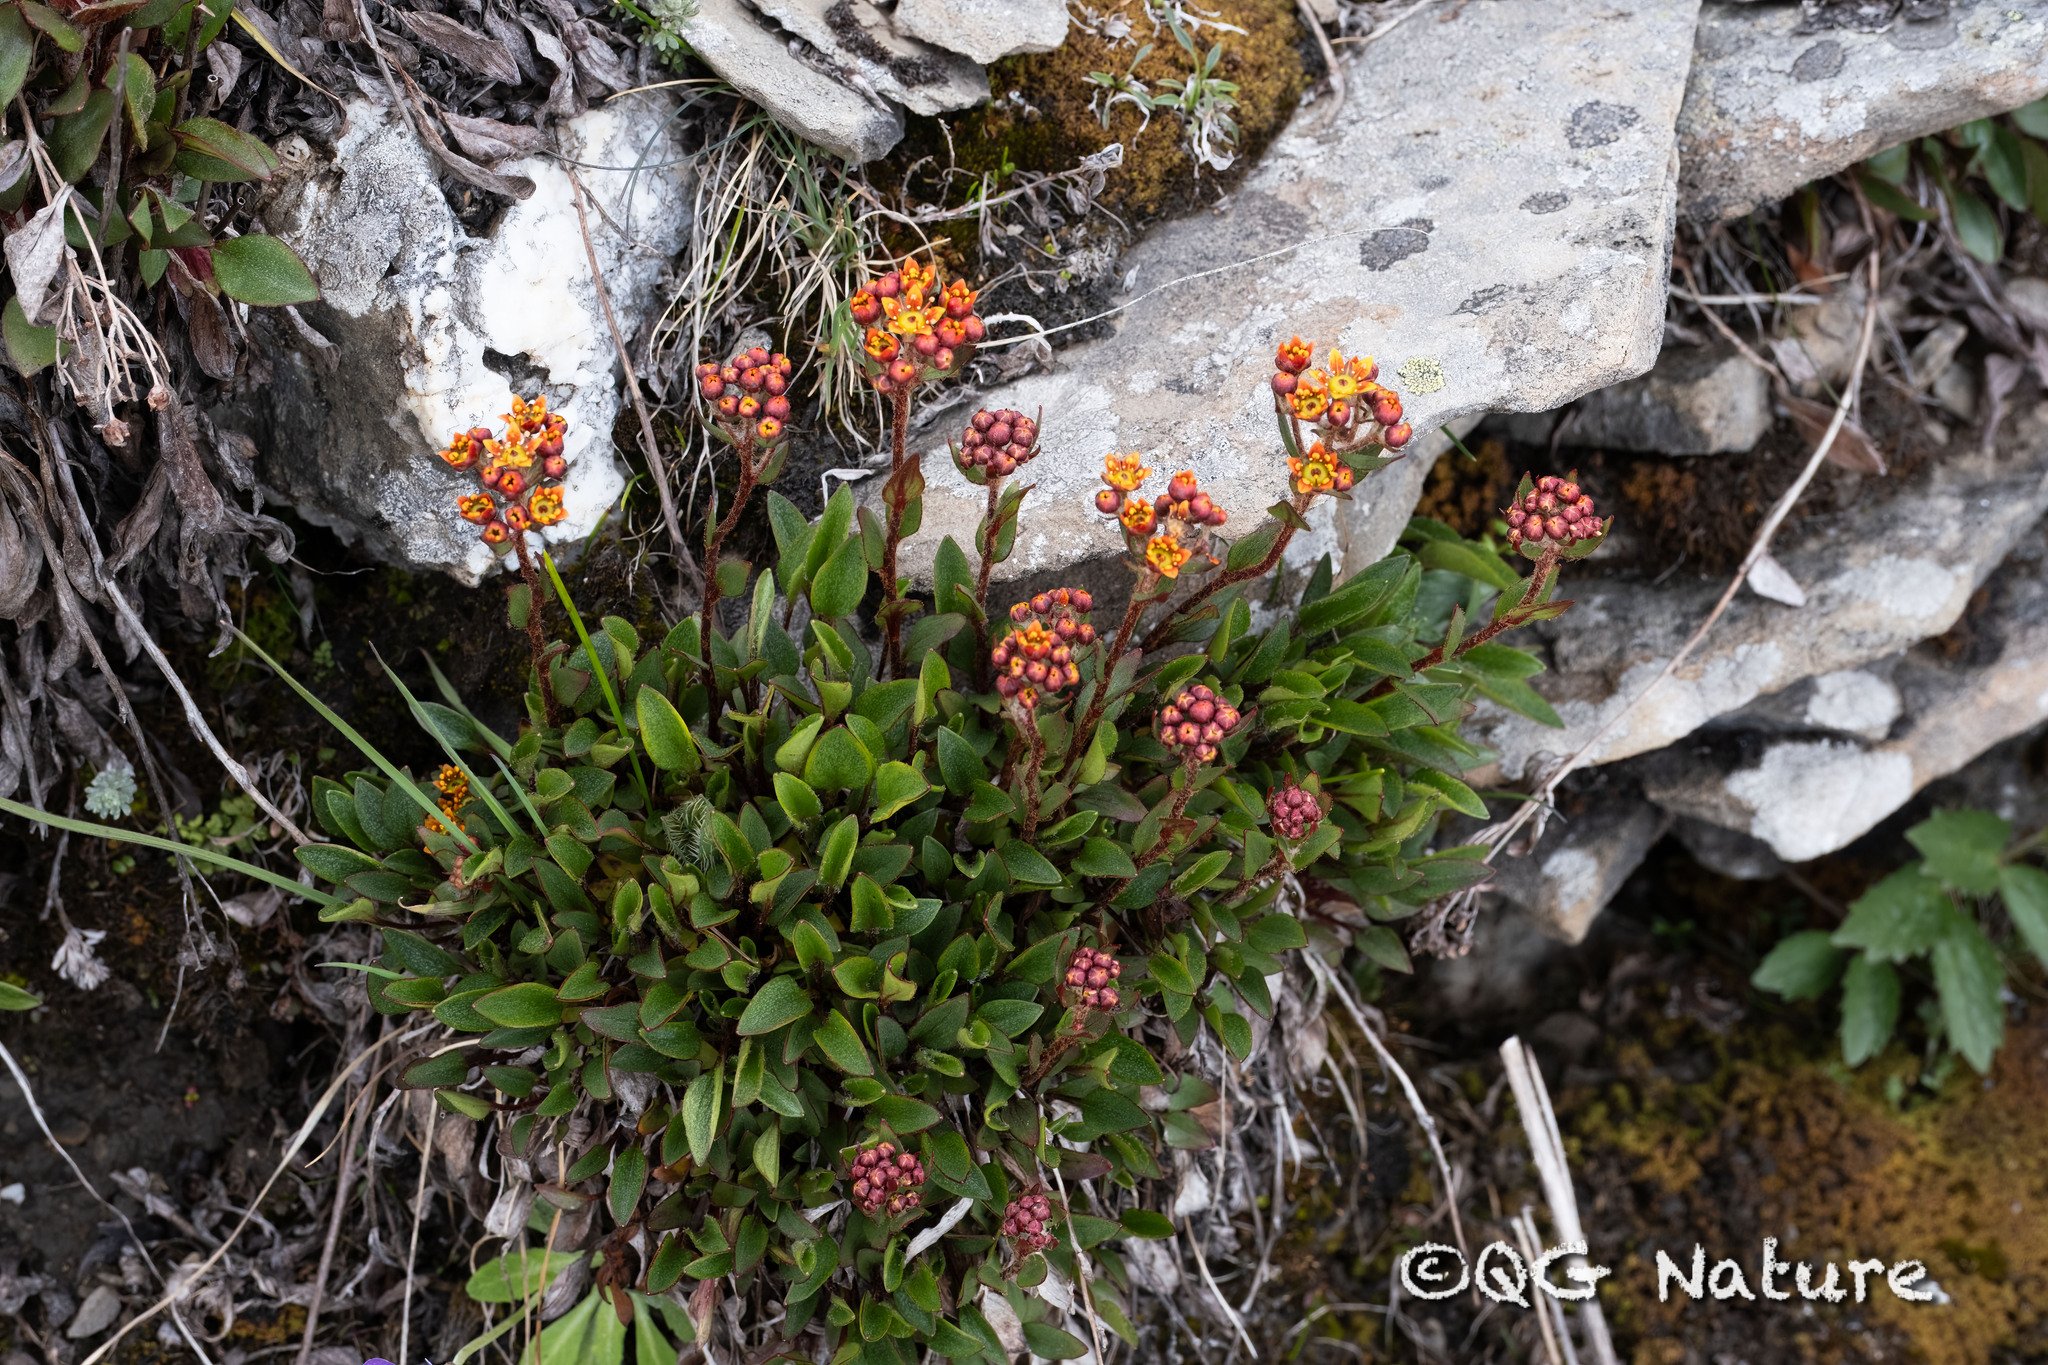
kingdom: Plantae
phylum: Tracheophyta
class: Magnoliopsida
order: Saxifragales
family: Saxifragaceae
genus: Saxifraga
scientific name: Saxifraga tangutica
